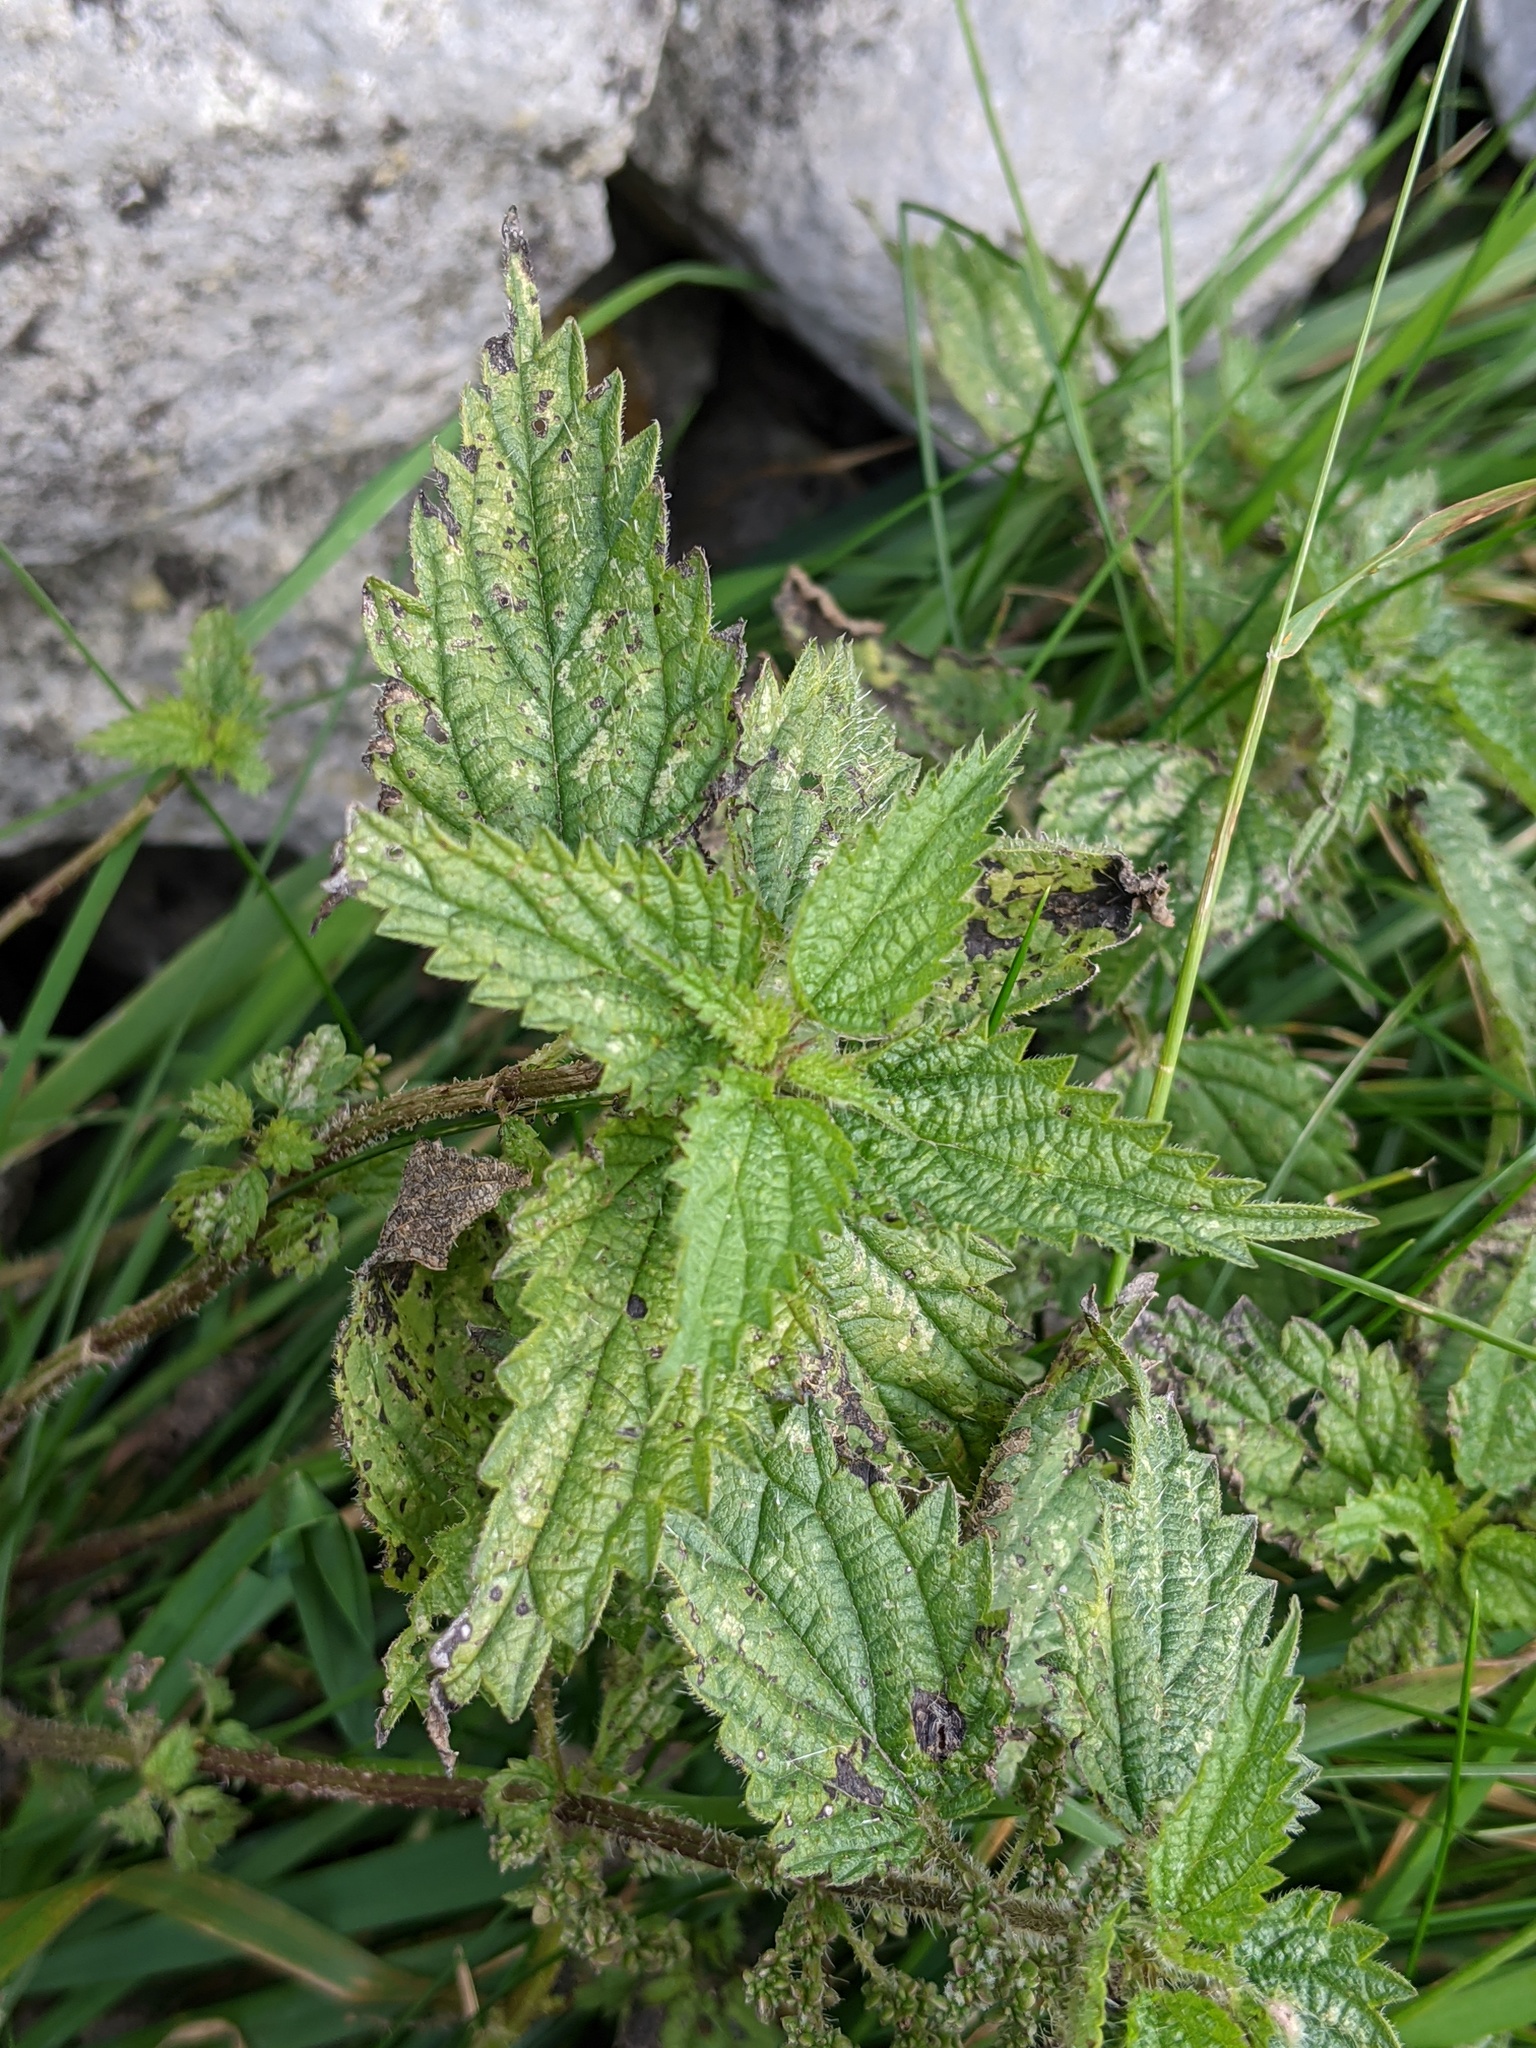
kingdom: Plantae
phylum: Tracheophyta
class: Magnoliopsida
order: Rosales
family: Urticaceae
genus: Urtica
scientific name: Urtica dioica
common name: Common nettle
